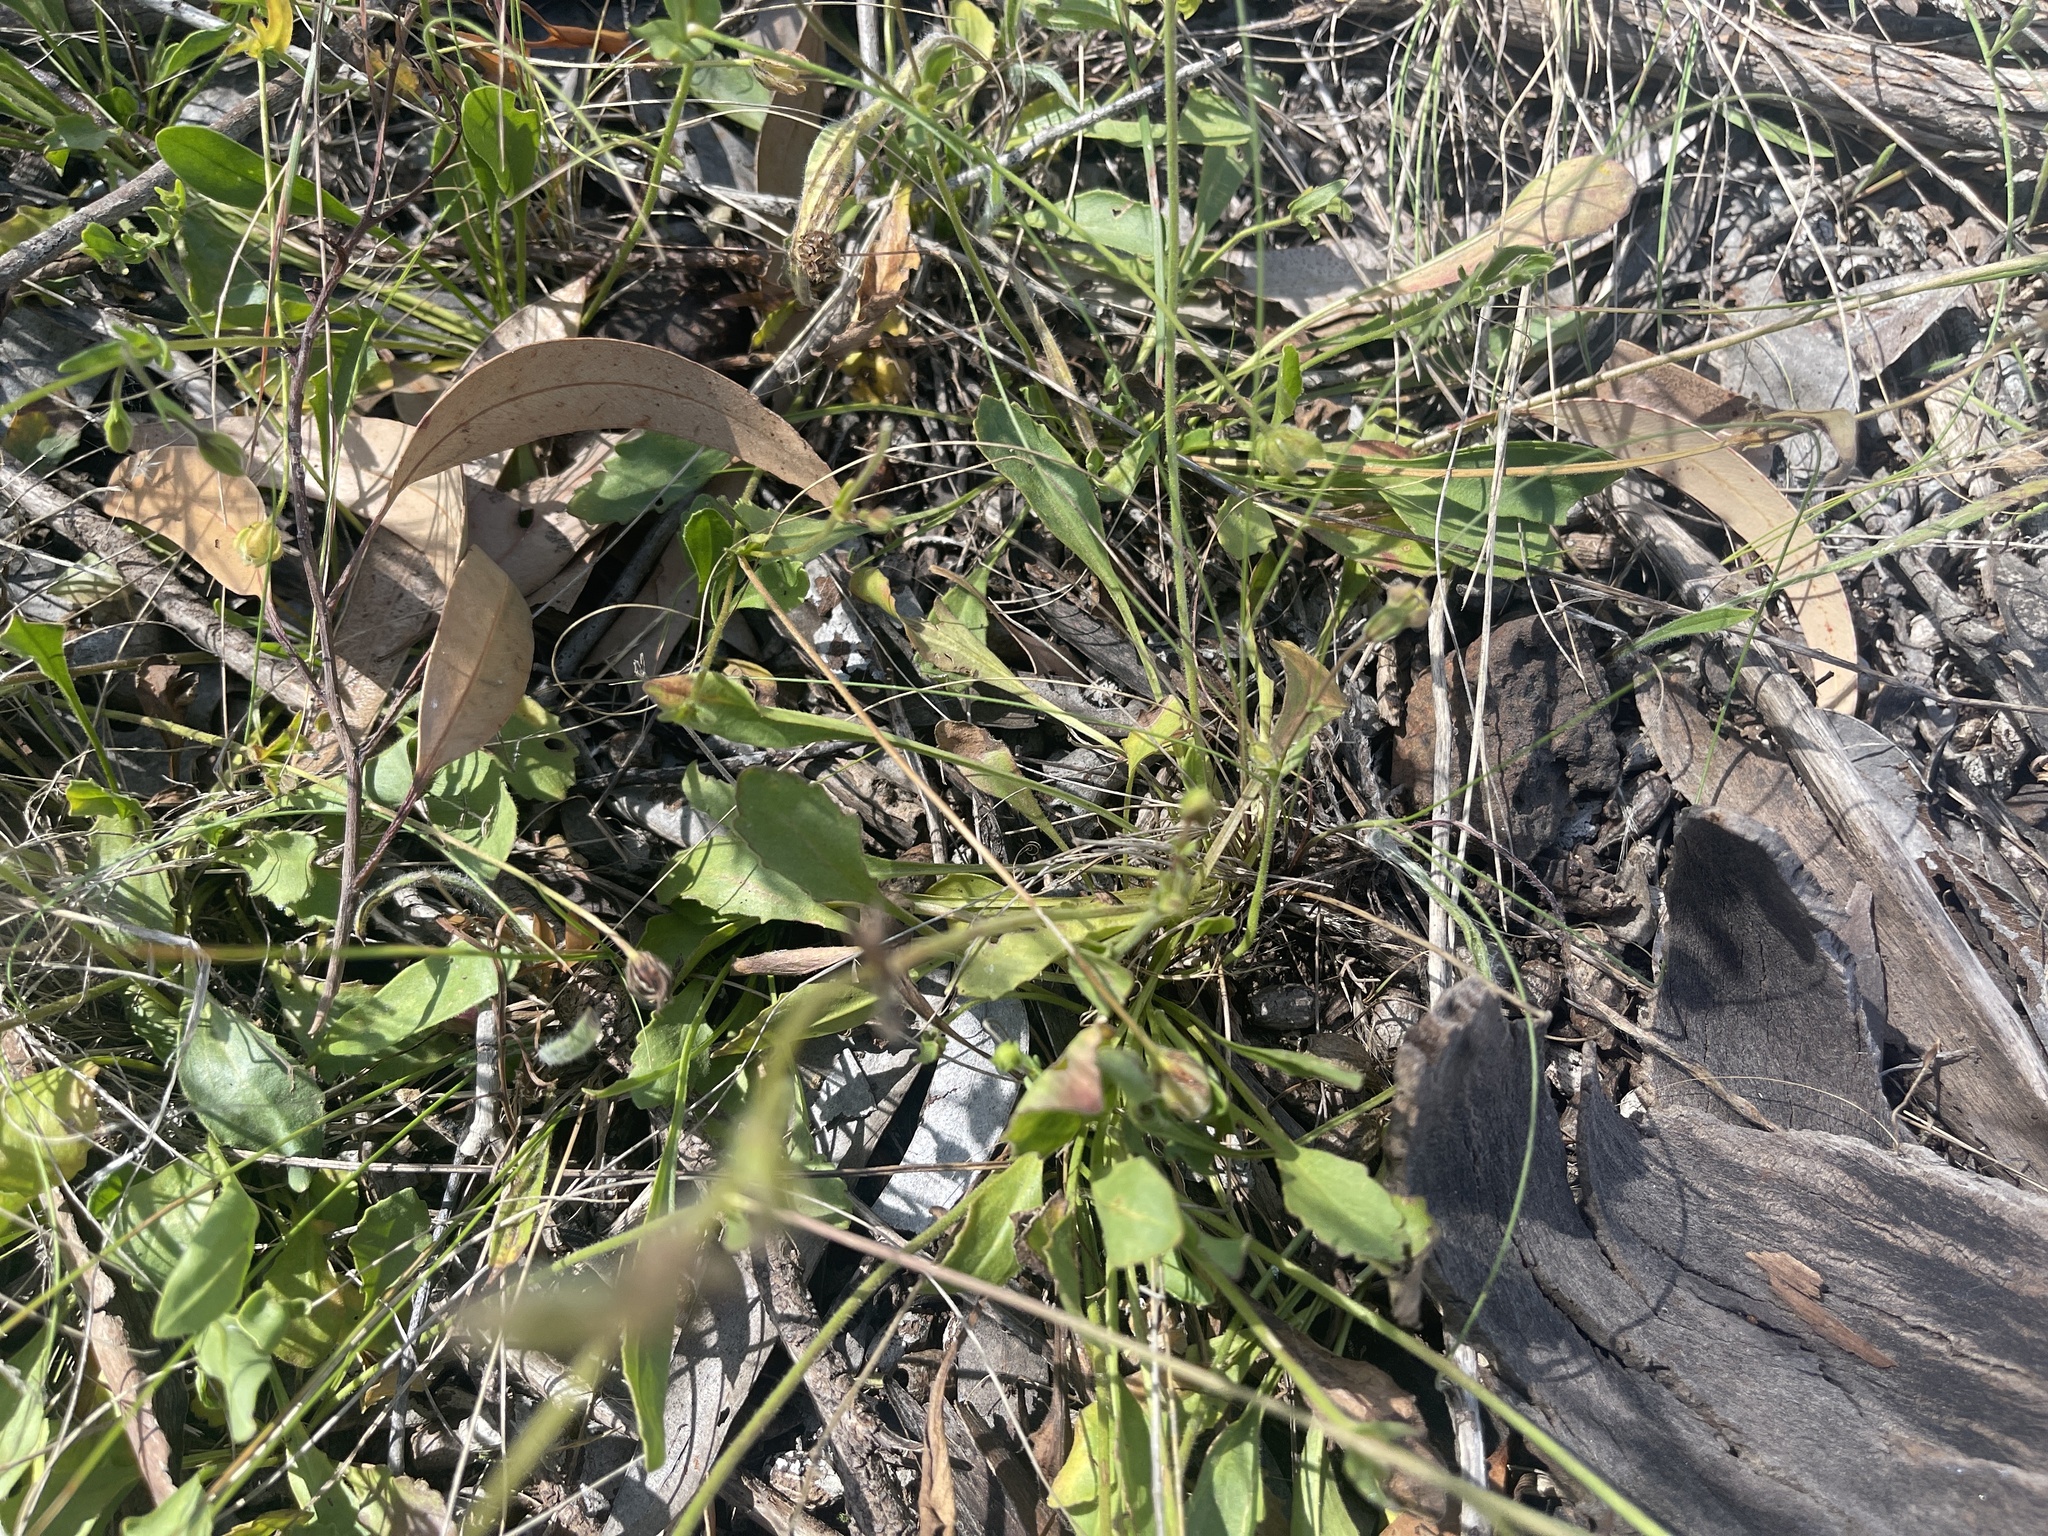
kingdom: Plantae
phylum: Tracheophyta
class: Magnoliopsida
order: Asterales
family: Goodeniaceae
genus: Goodenia
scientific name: Goodenia paradoxa
